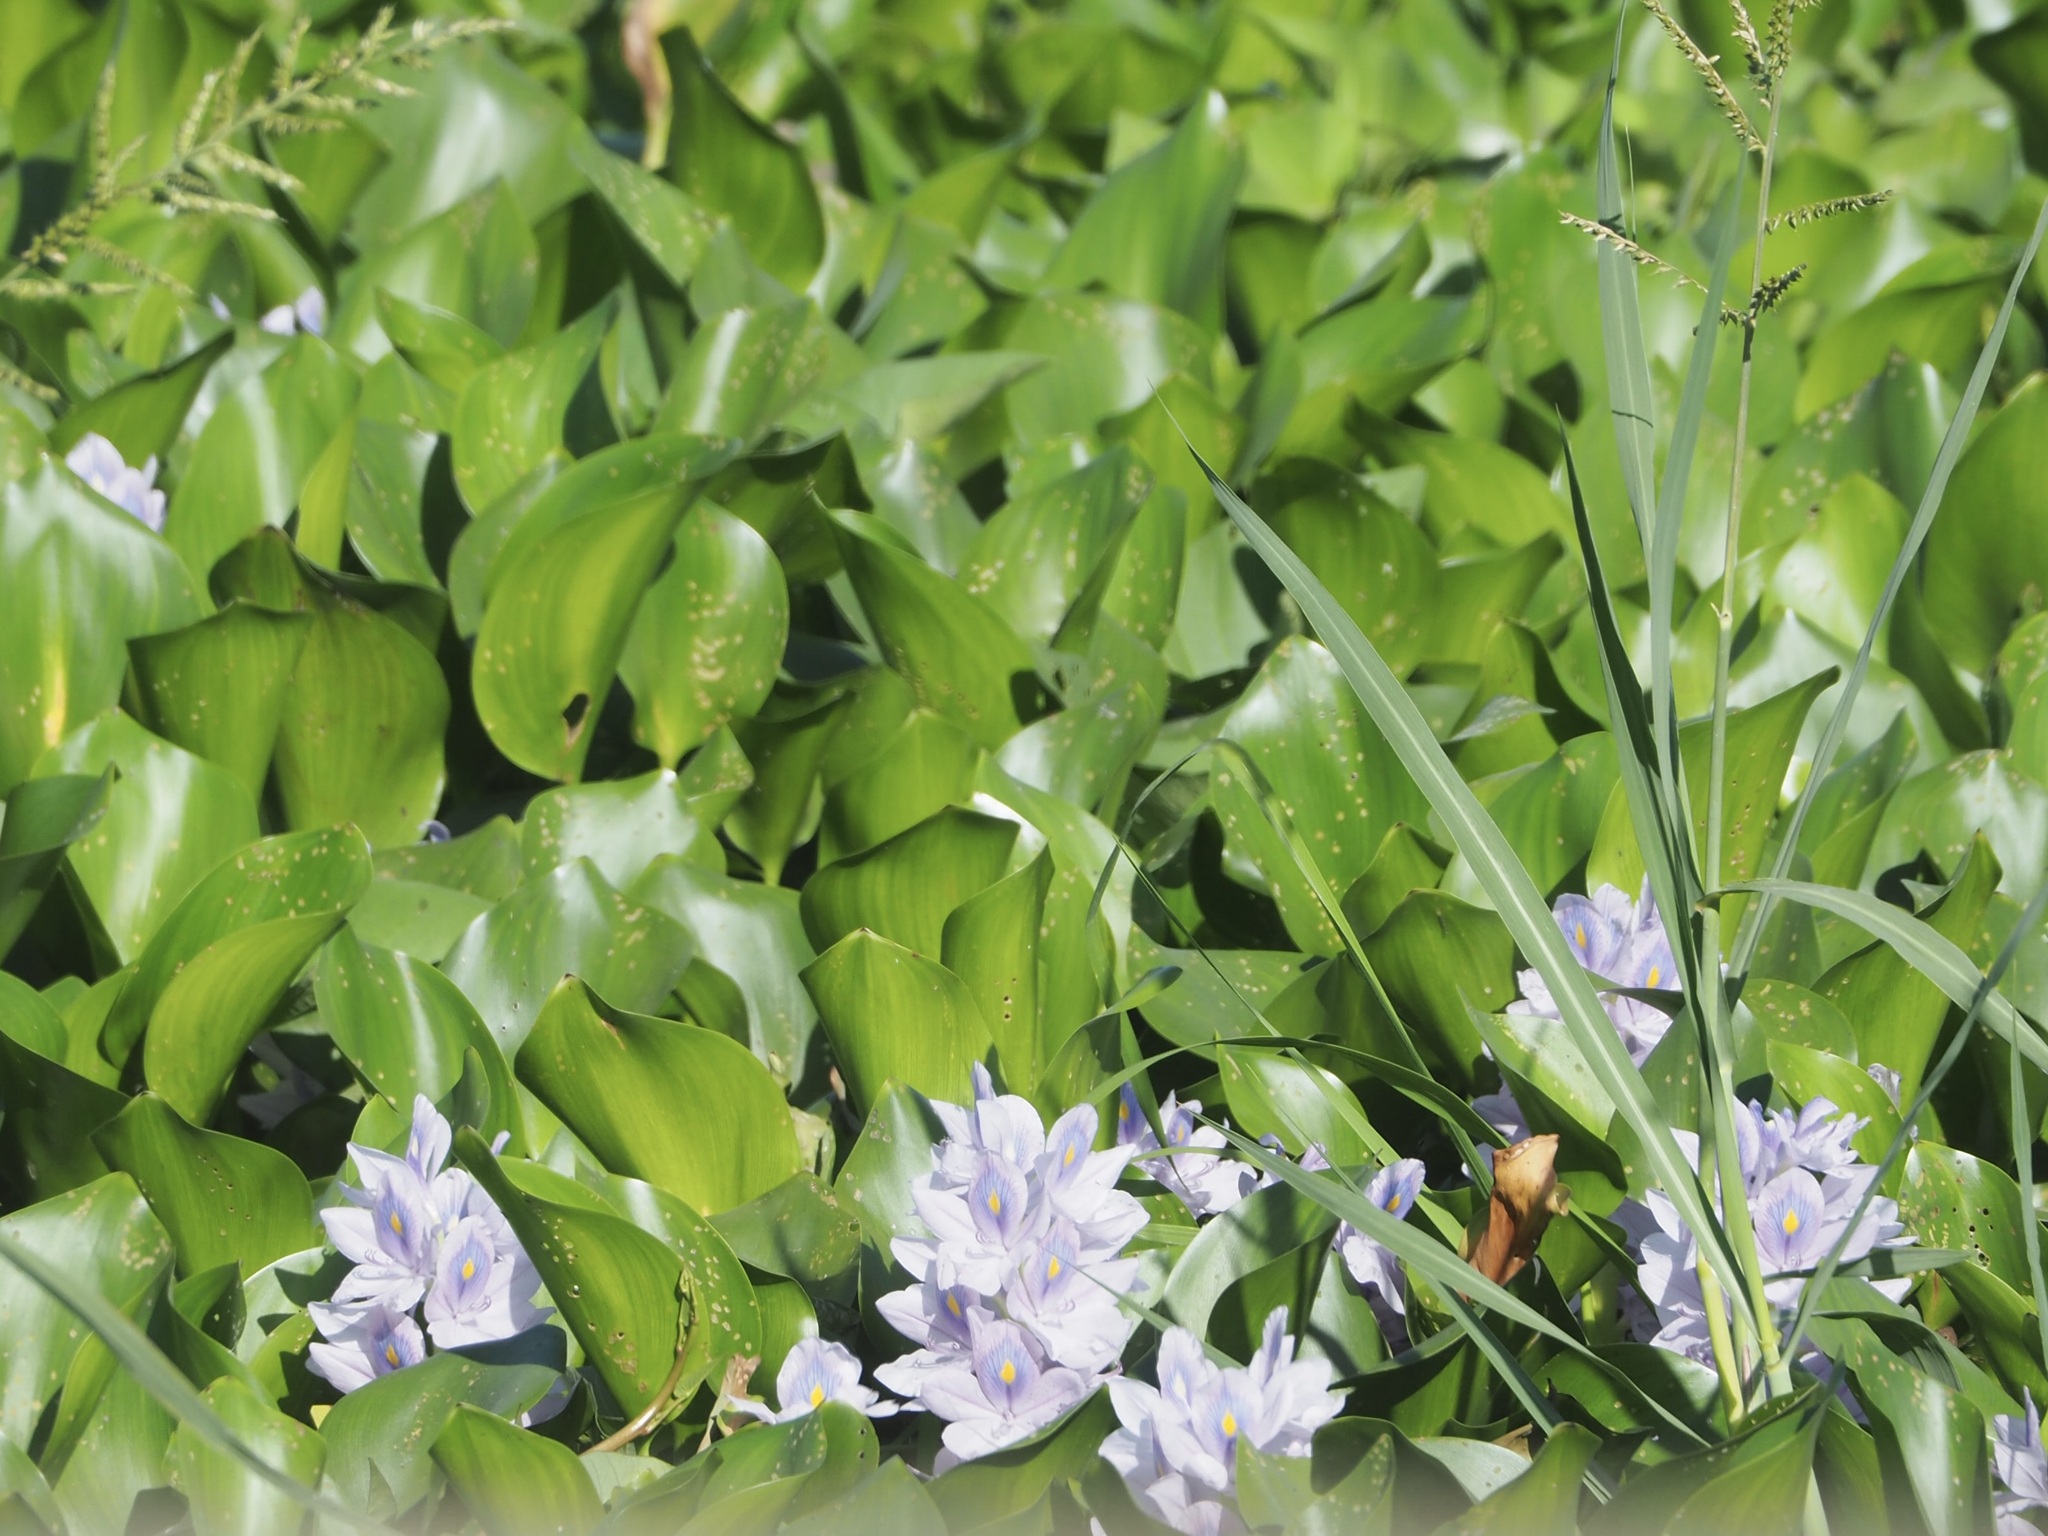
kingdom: Plantae
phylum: Tracheophyta
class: Liliopsida
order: Commelinales
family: Pontederiaceae
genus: Pontederia
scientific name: Pontederia crassipes
